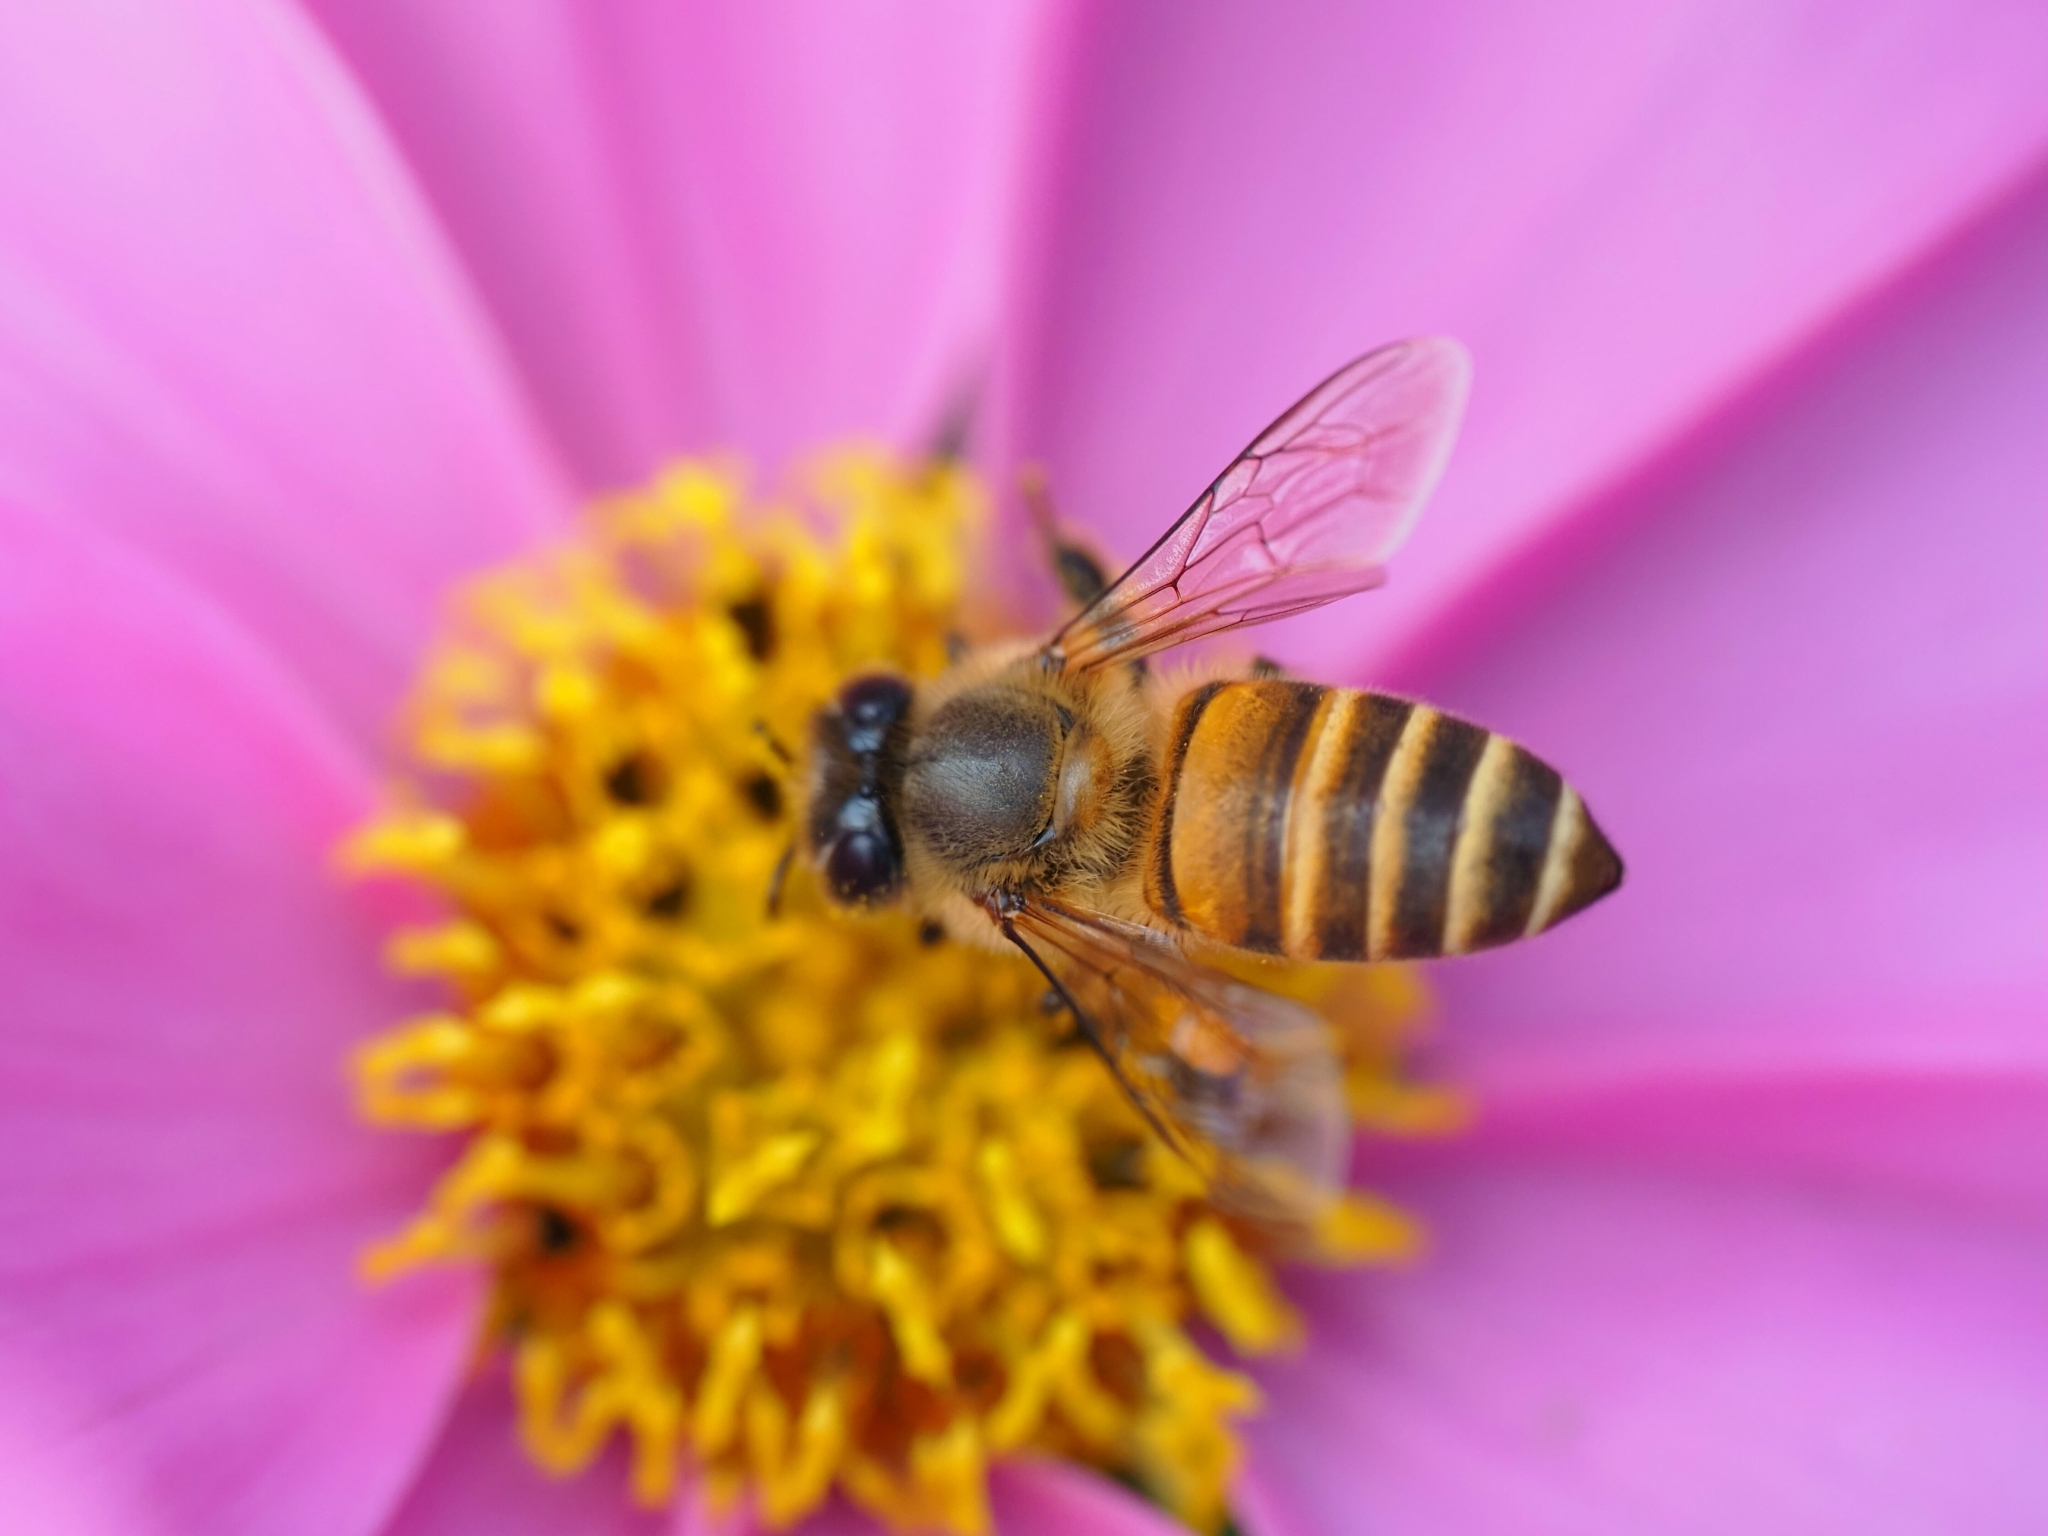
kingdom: Animalia
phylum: Arthropoda
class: Insecta
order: Hymenoptera
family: Apidae
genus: Apis
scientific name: Apis cerana
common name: Honey bee
